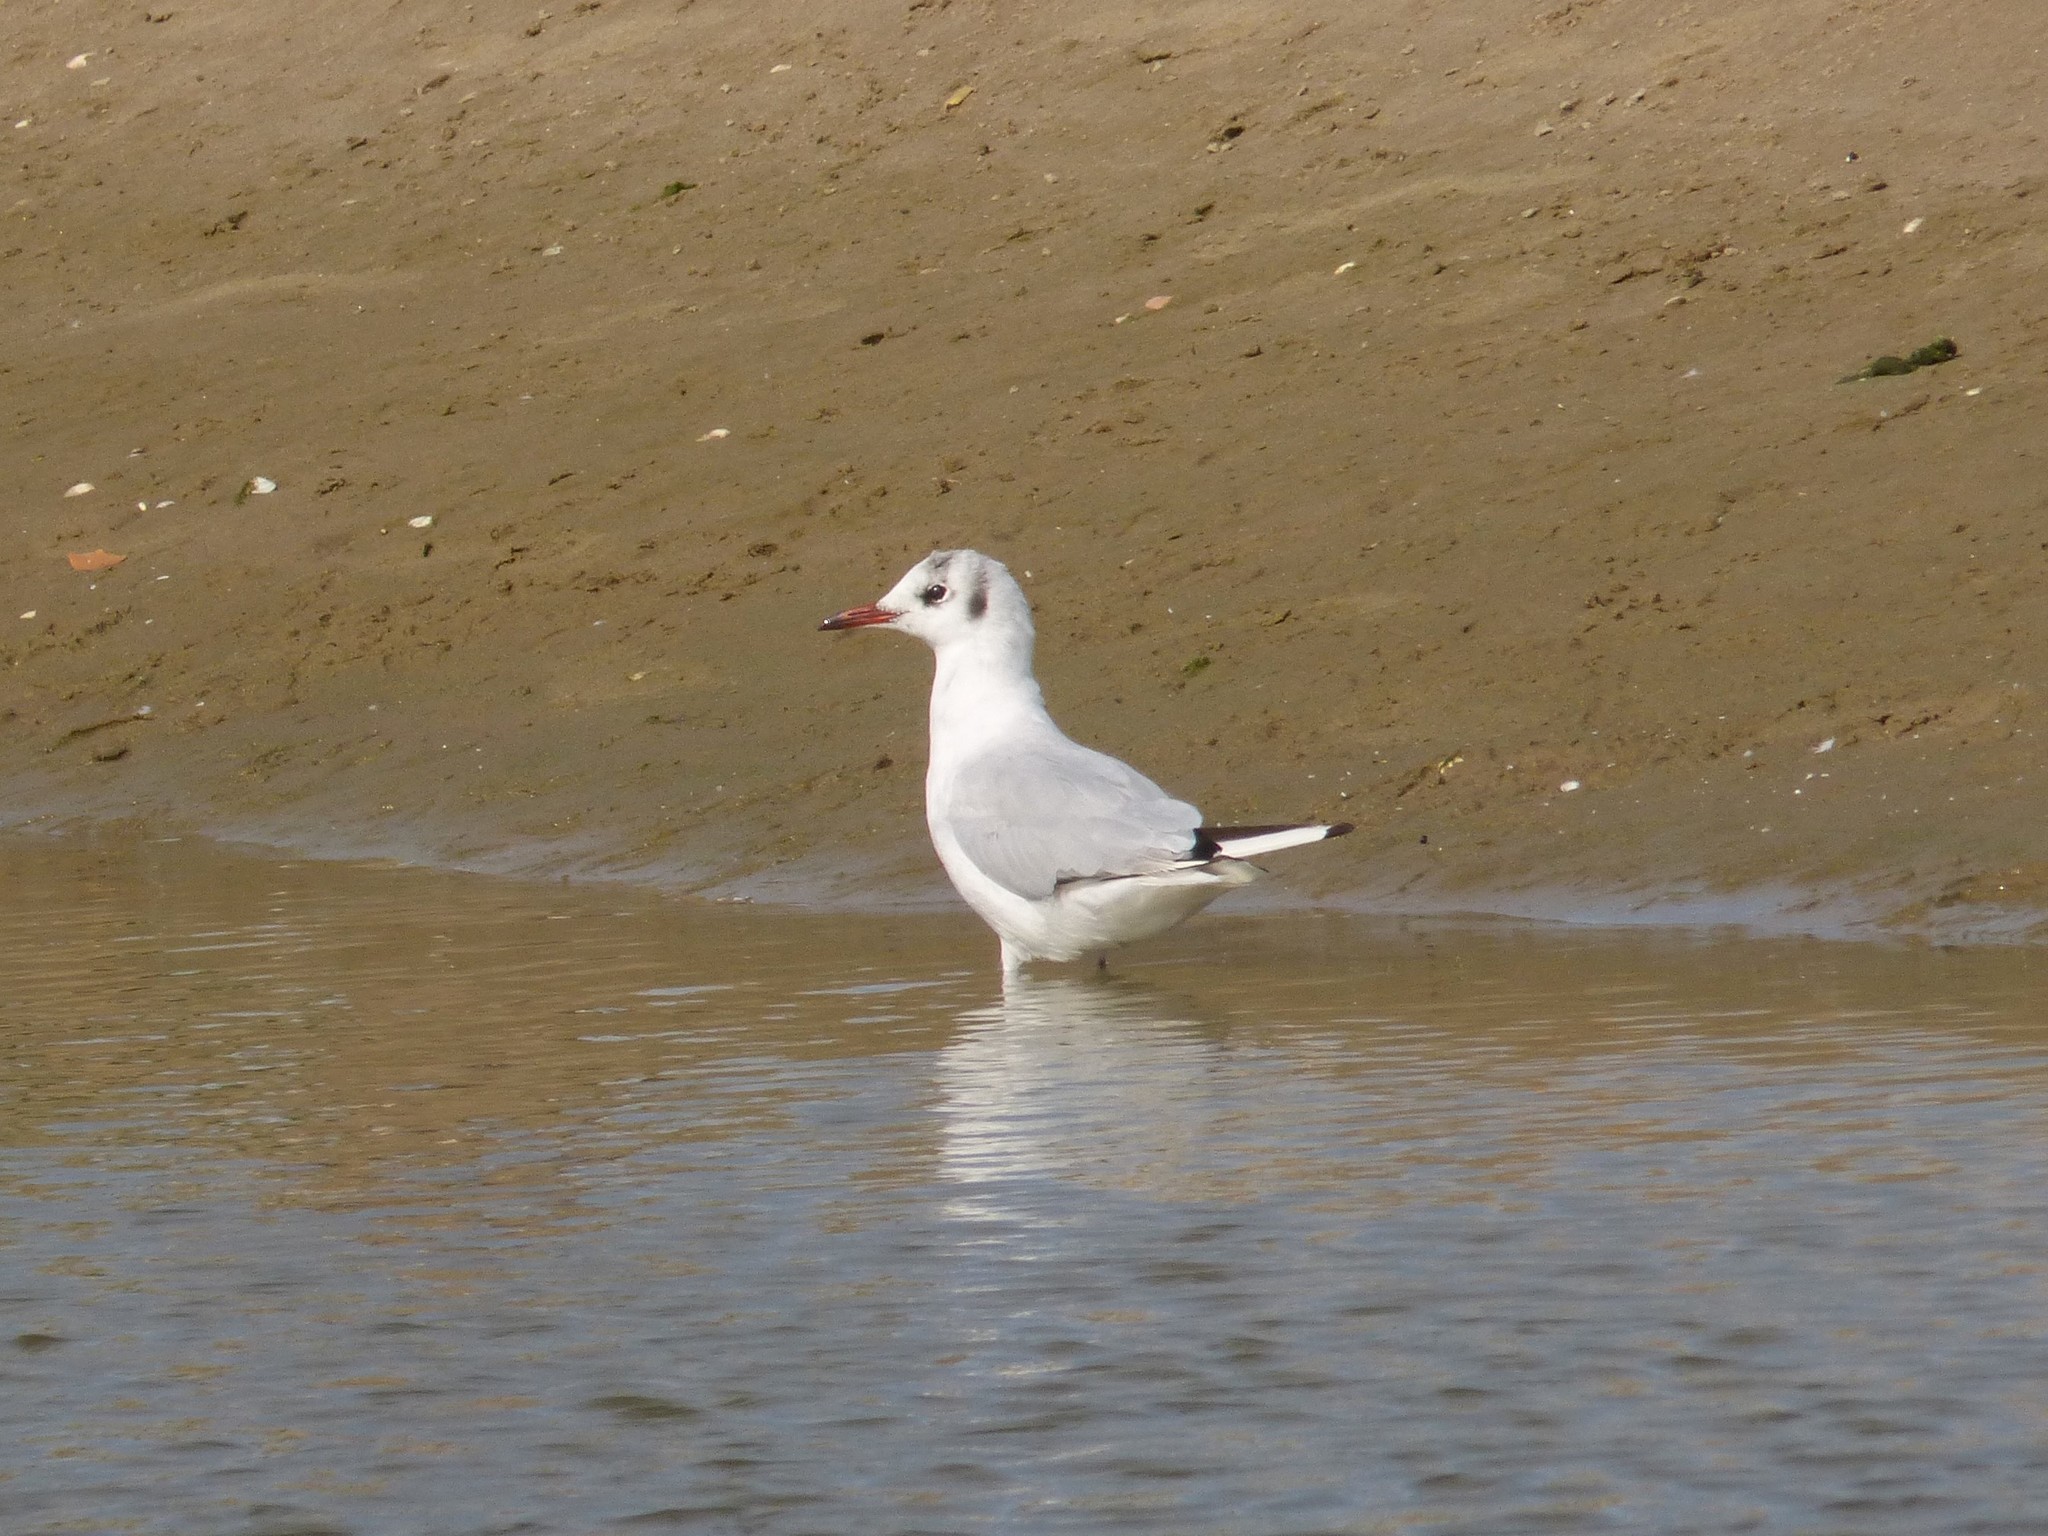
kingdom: Animalia
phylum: Chordata
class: Aves
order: Charadriiformes
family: Laridae
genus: Chroicocephalus
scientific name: Chroicocephalus ridibundus
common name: Black-headed gull
